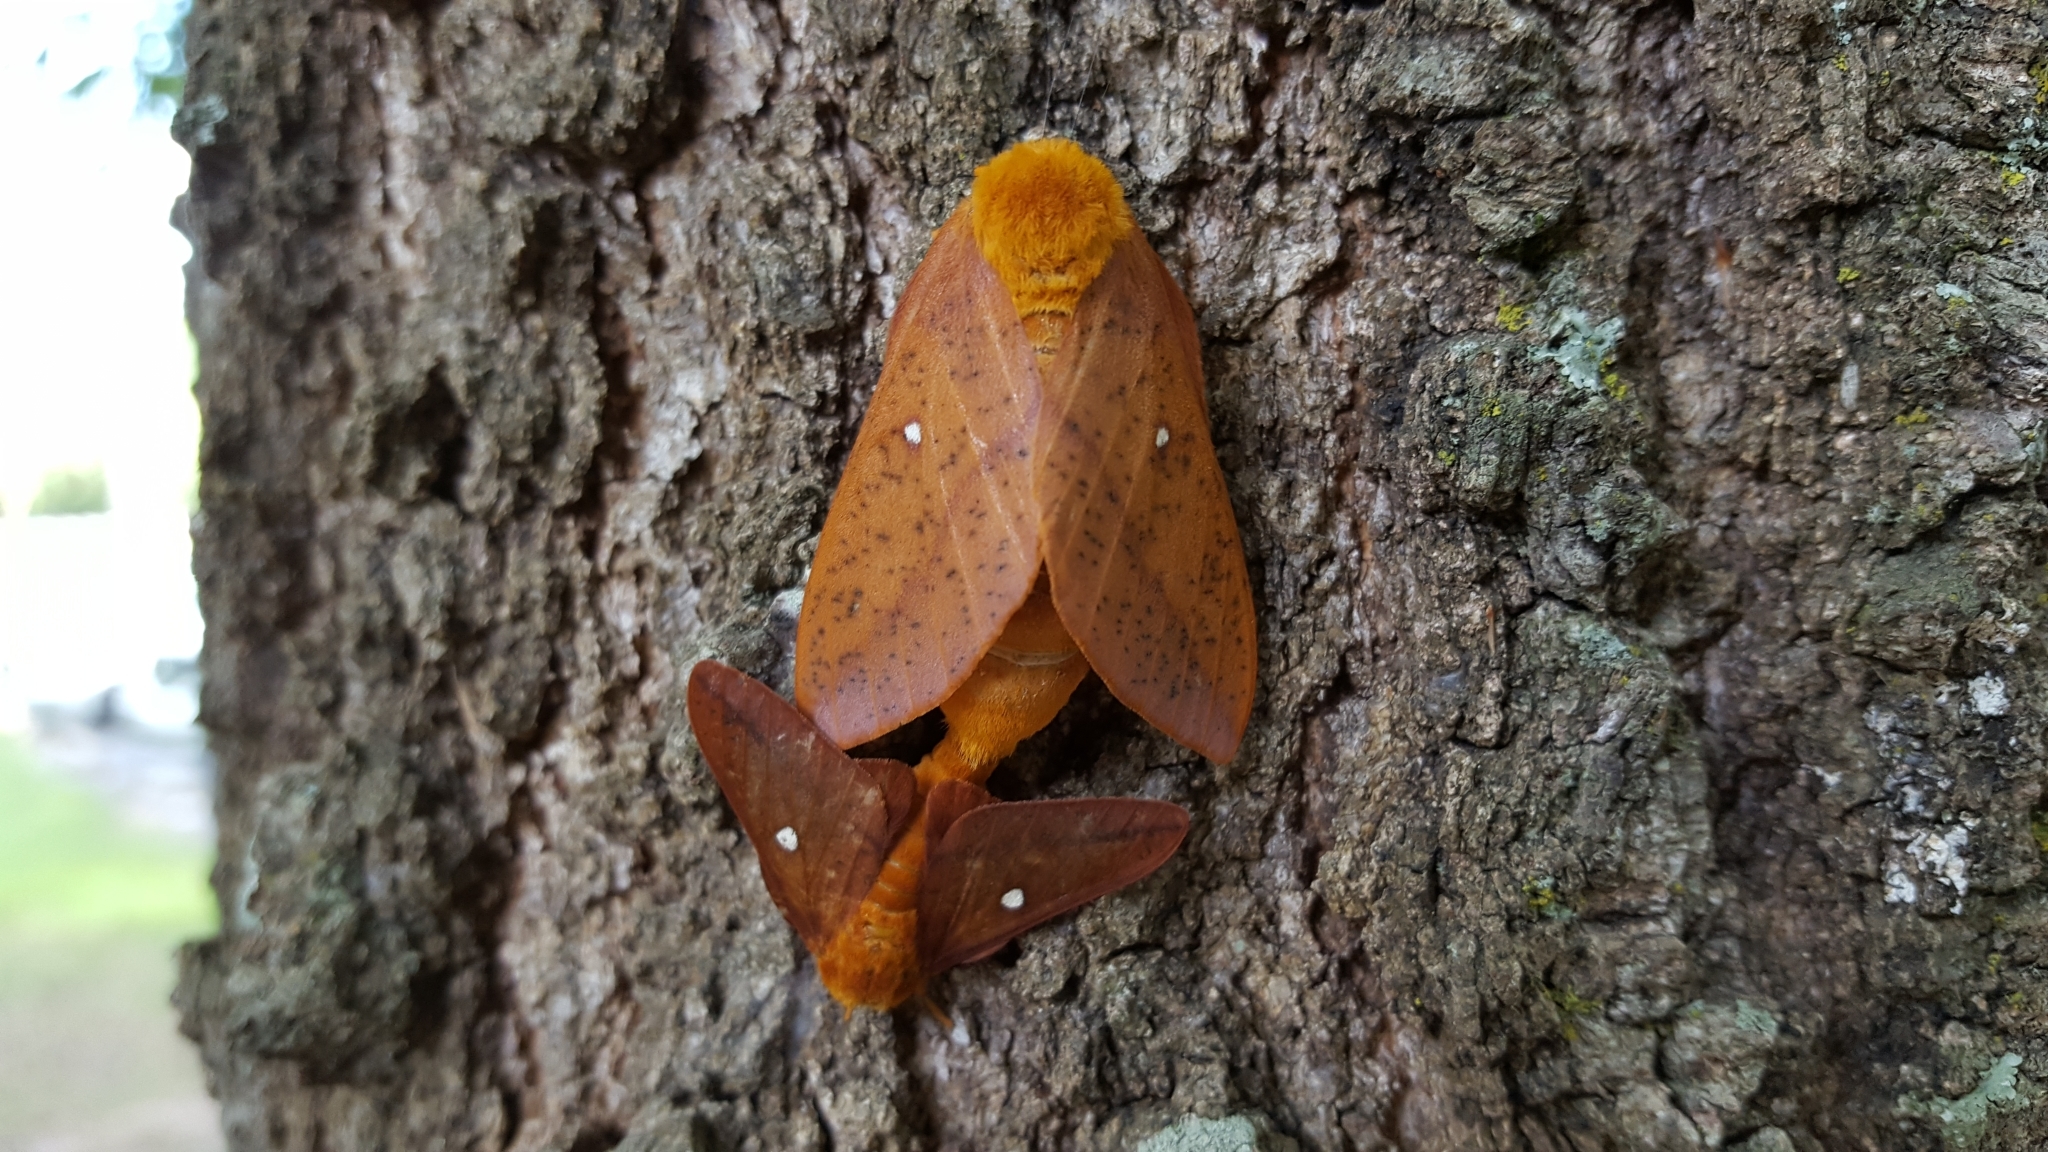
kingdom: Animalia
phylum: Arthropoda
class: Insecta
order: Lepidoptera
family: Saturniidae
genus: Anisota
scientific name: Anisota peigleri
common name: Peigler's oakworm moth
